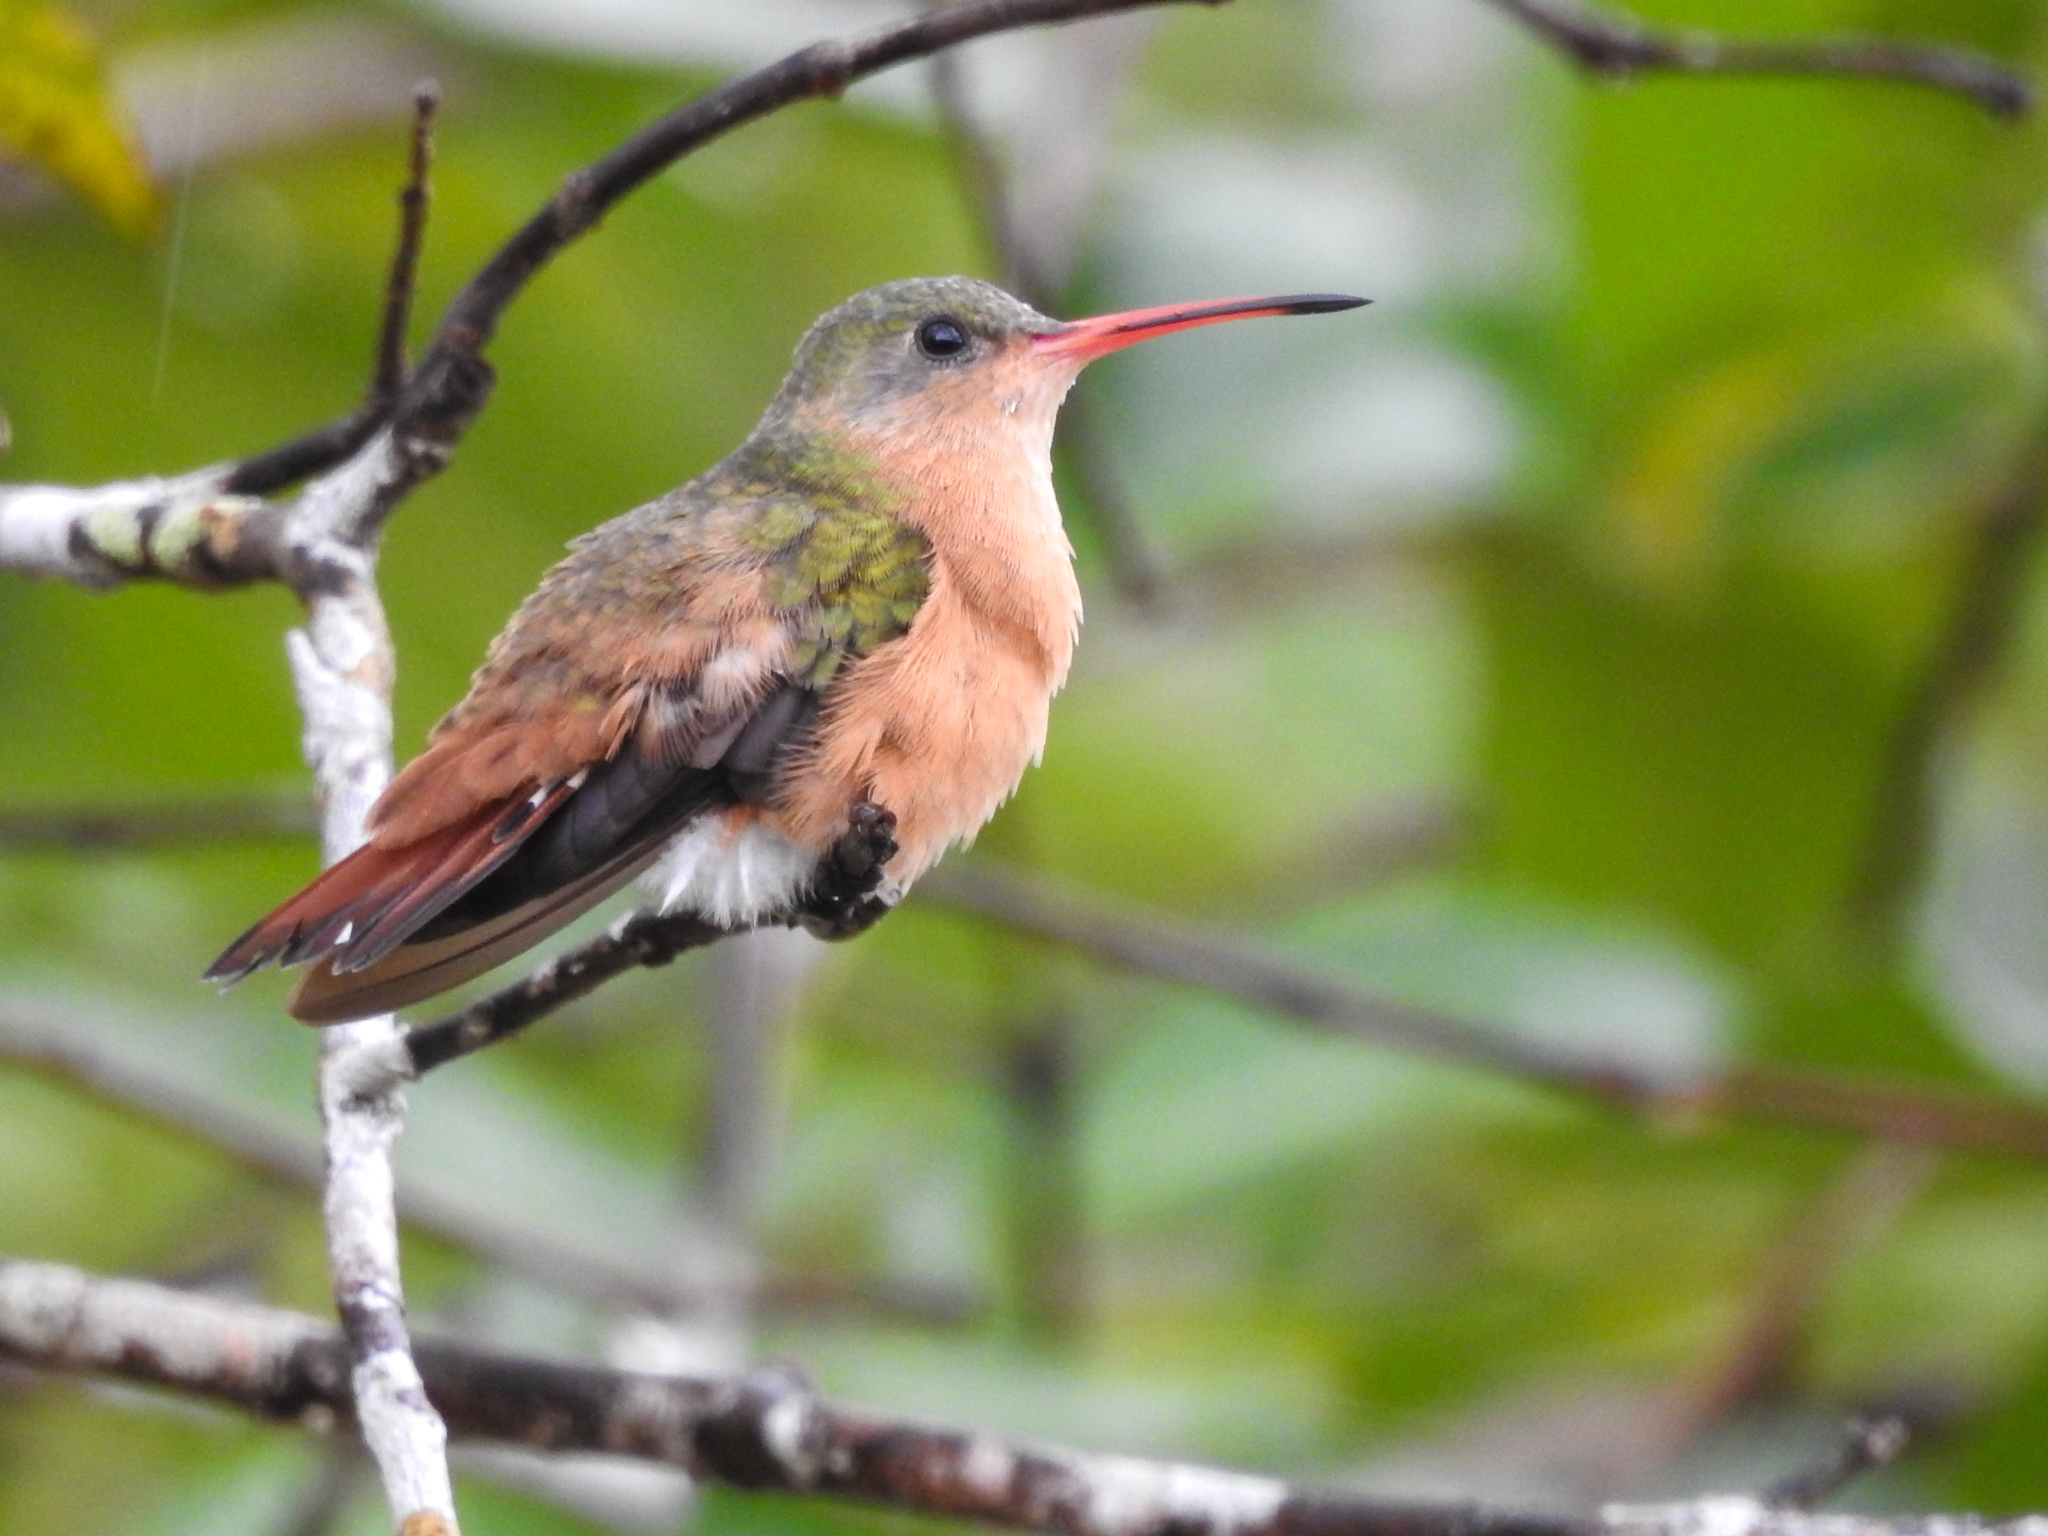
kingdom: Animalia
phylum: Chordata
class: Aves
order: Apodiformes
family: Trochilidae
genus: Amazilia
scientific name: Amazilia rutila
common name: Cinnamon hummingbird
